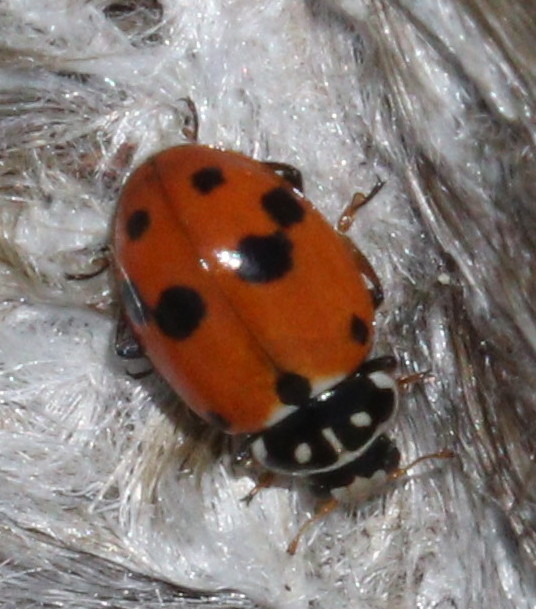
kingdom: Animalia
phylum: Arthropoda
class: Insecta
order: Coleoptera
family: Coccinellidae
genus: Hippodamia
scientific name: Hippodamia variegata
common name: Ladybird beetle
